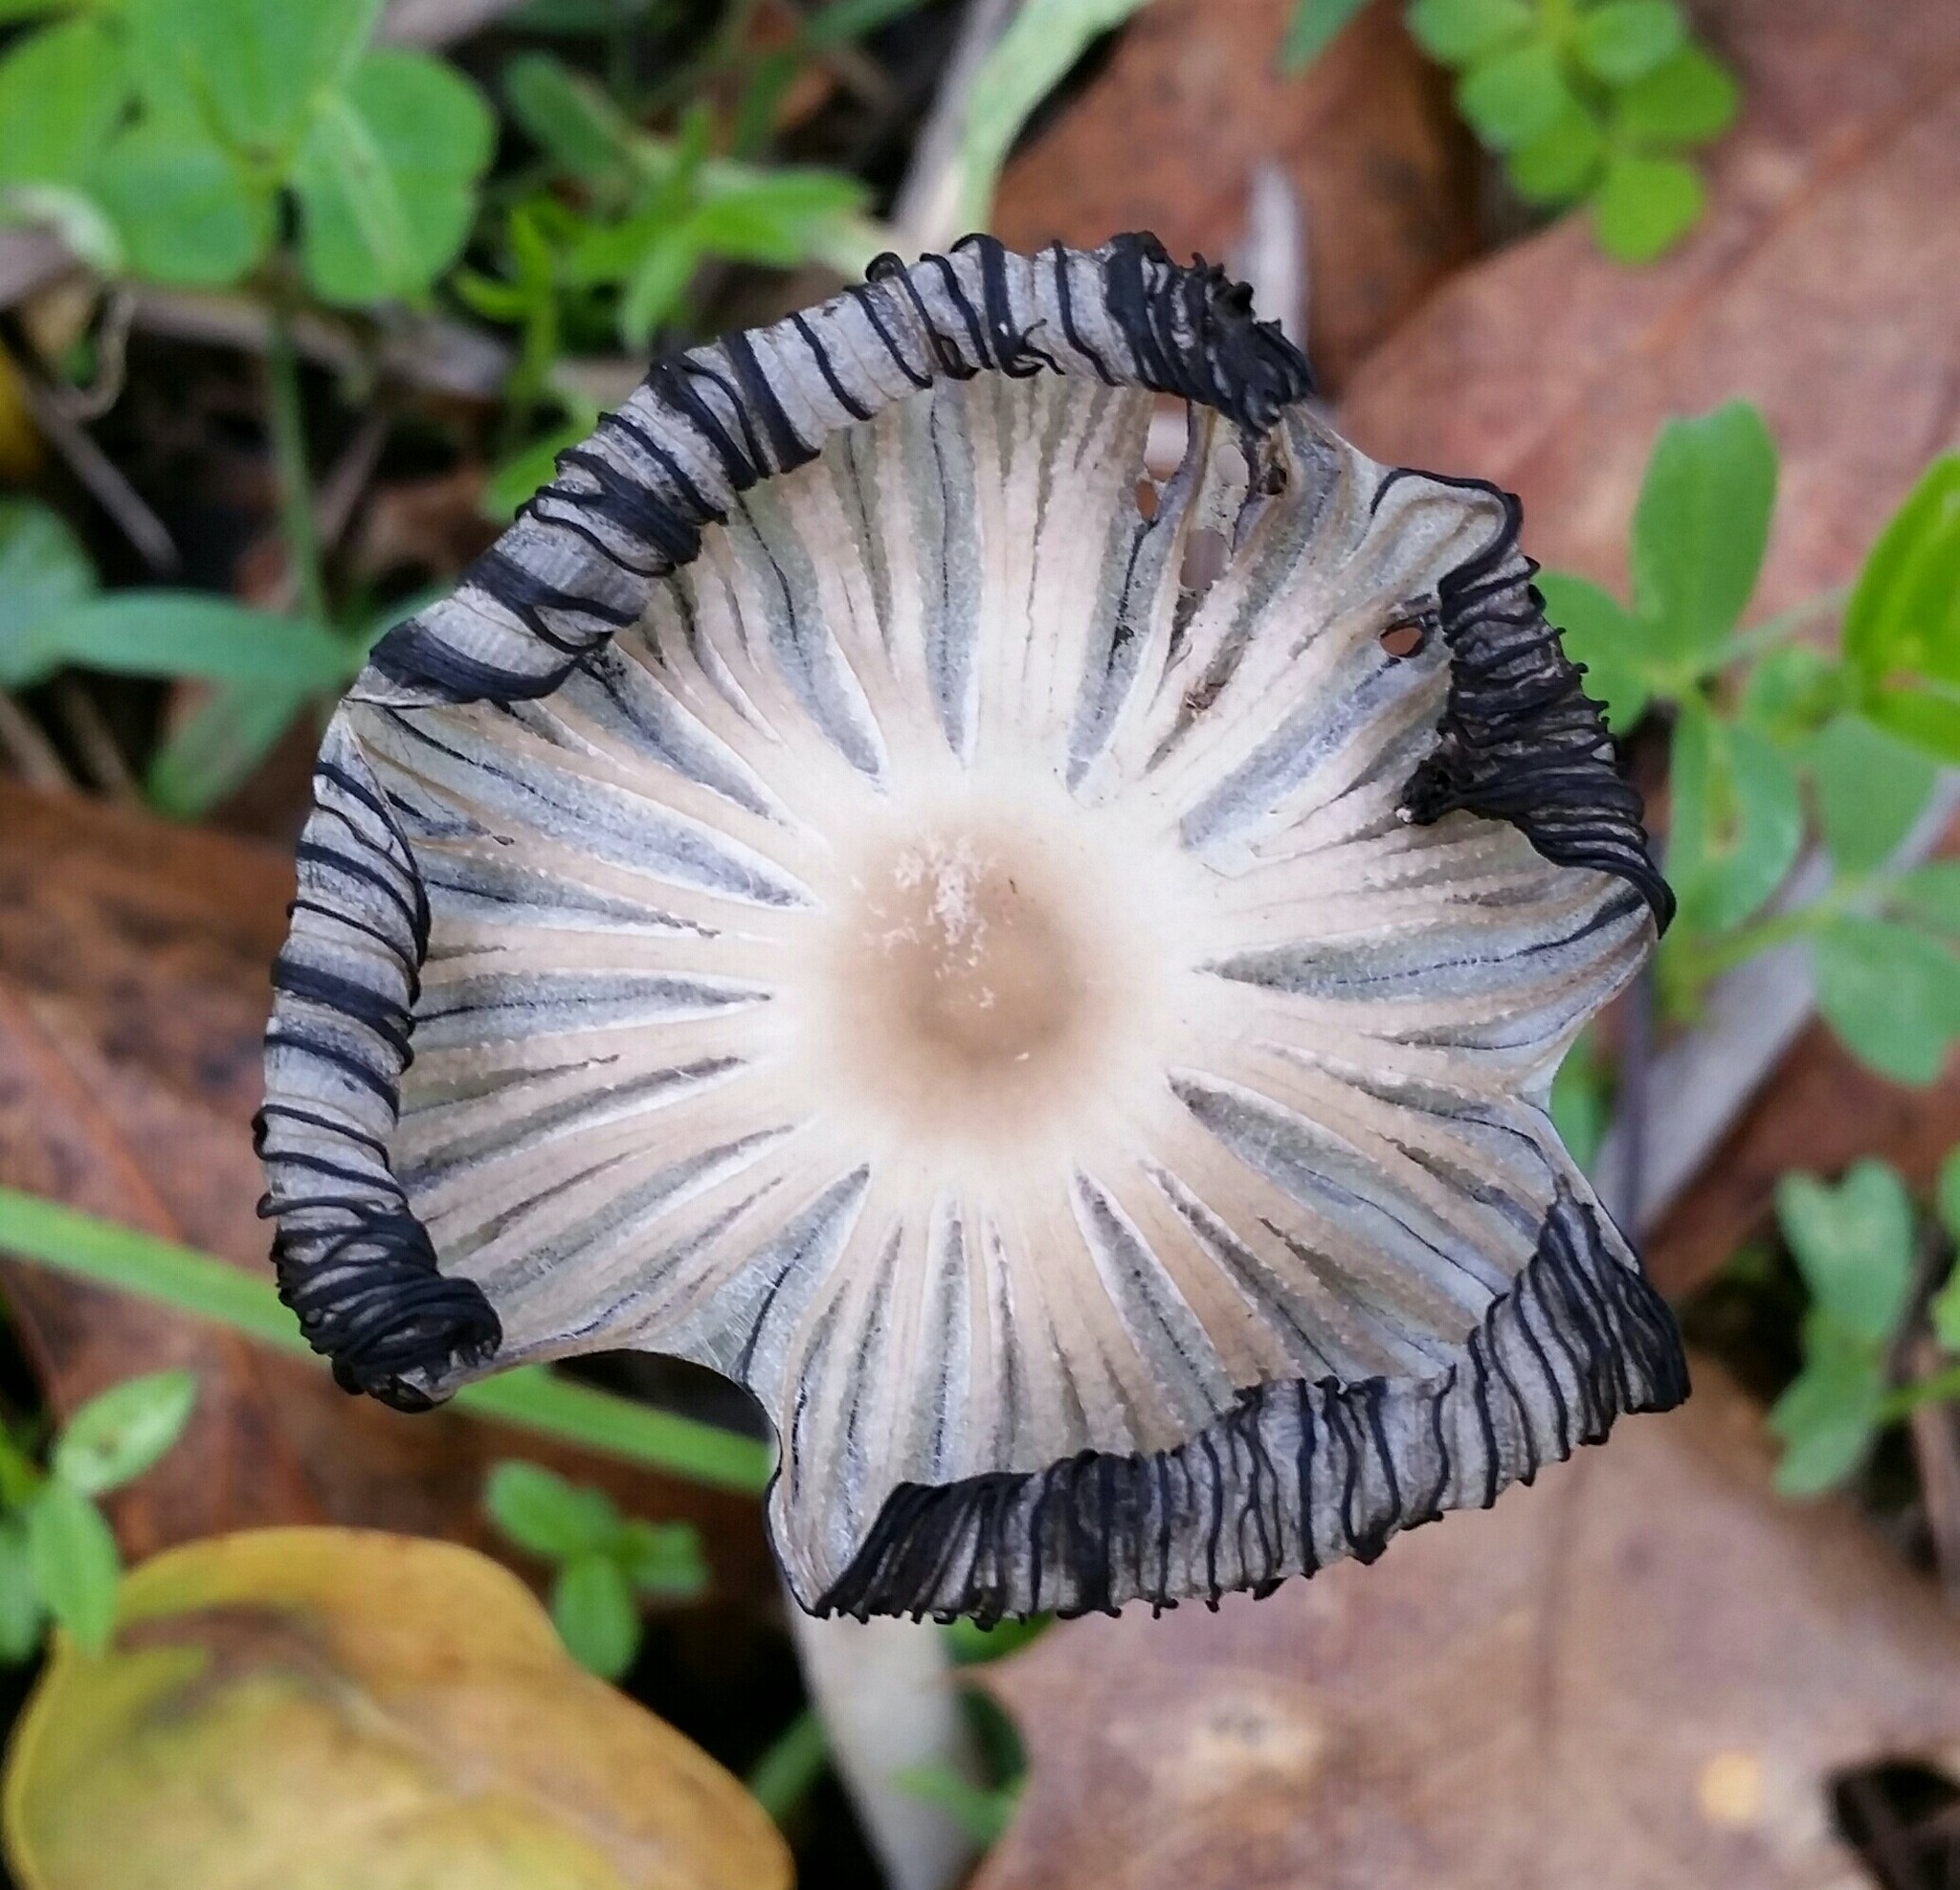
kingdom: Fungi
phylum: Basidiomycota
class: Agaricomycetes
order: Agaricales
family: Psathyrellaceae
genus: Tulosesus
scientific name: Tulosesus impatiens
